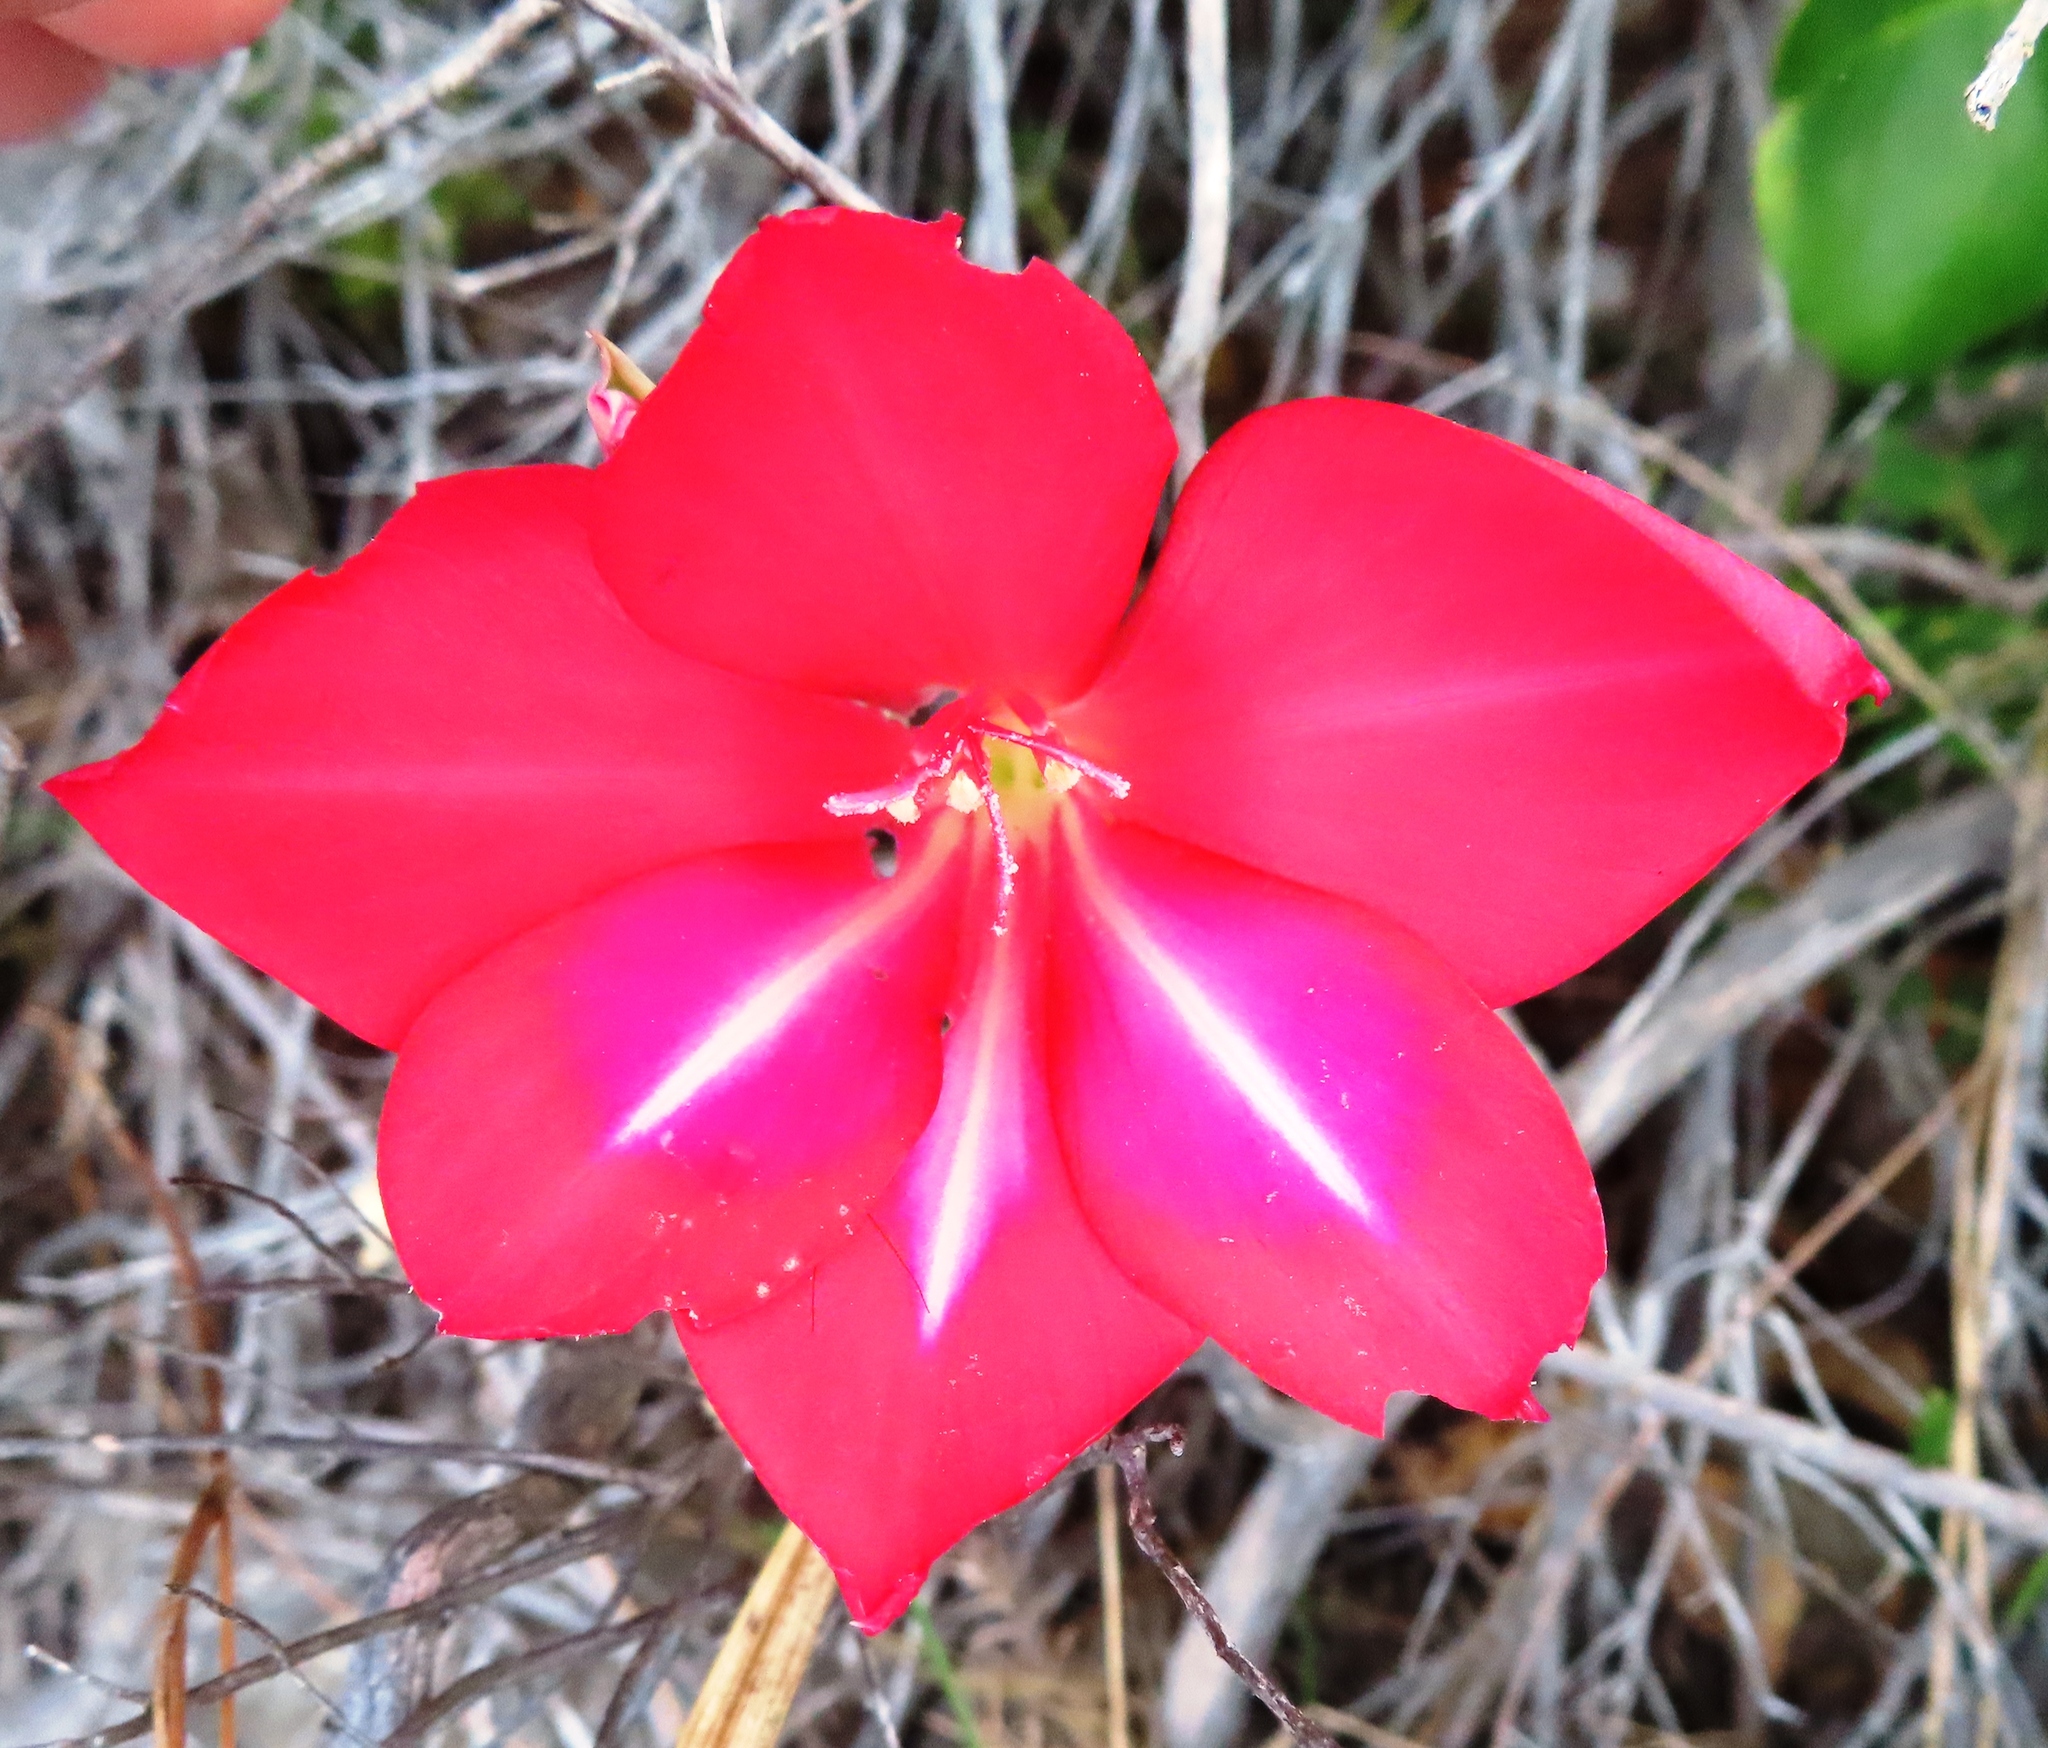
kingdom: Plantae
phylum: Tracheophyta
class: Liliopsida
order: Asparagales
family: Iridaceae
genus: Gladiolus
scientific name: Gladiolus carmineus
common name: Hermanus gladiolus
